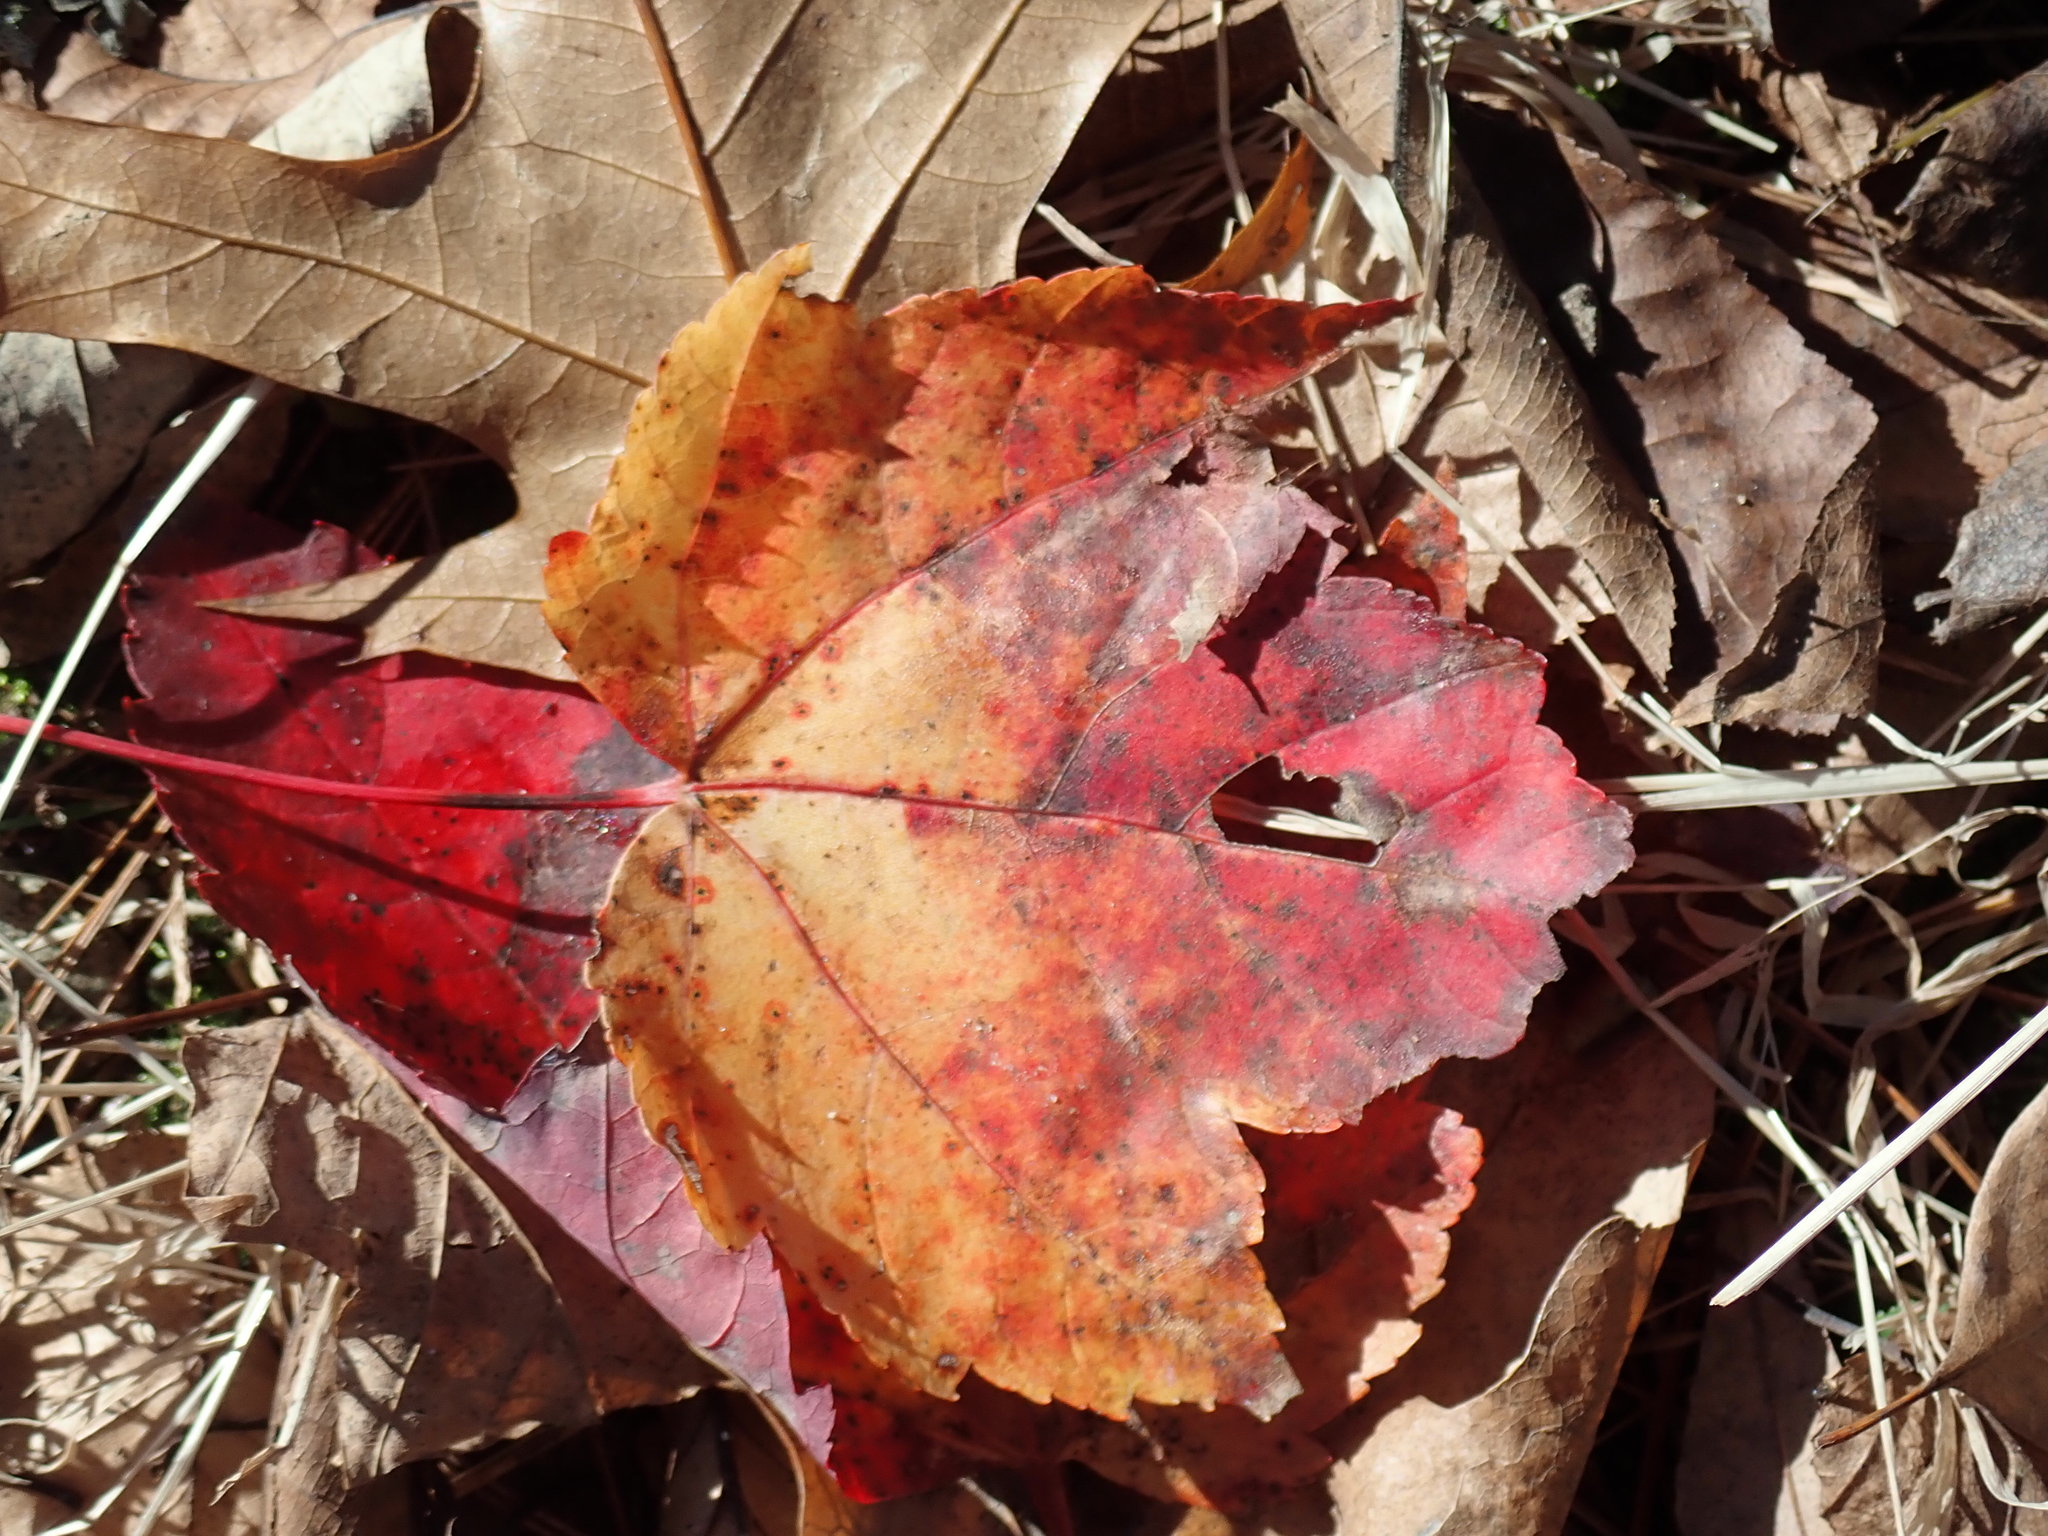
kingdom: Plantae
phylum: Tracheophyta
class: Magnoliopsida
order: Sapindales
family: Sapindaceae
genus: Acer
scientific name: Acer rubrum
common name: Red maple
